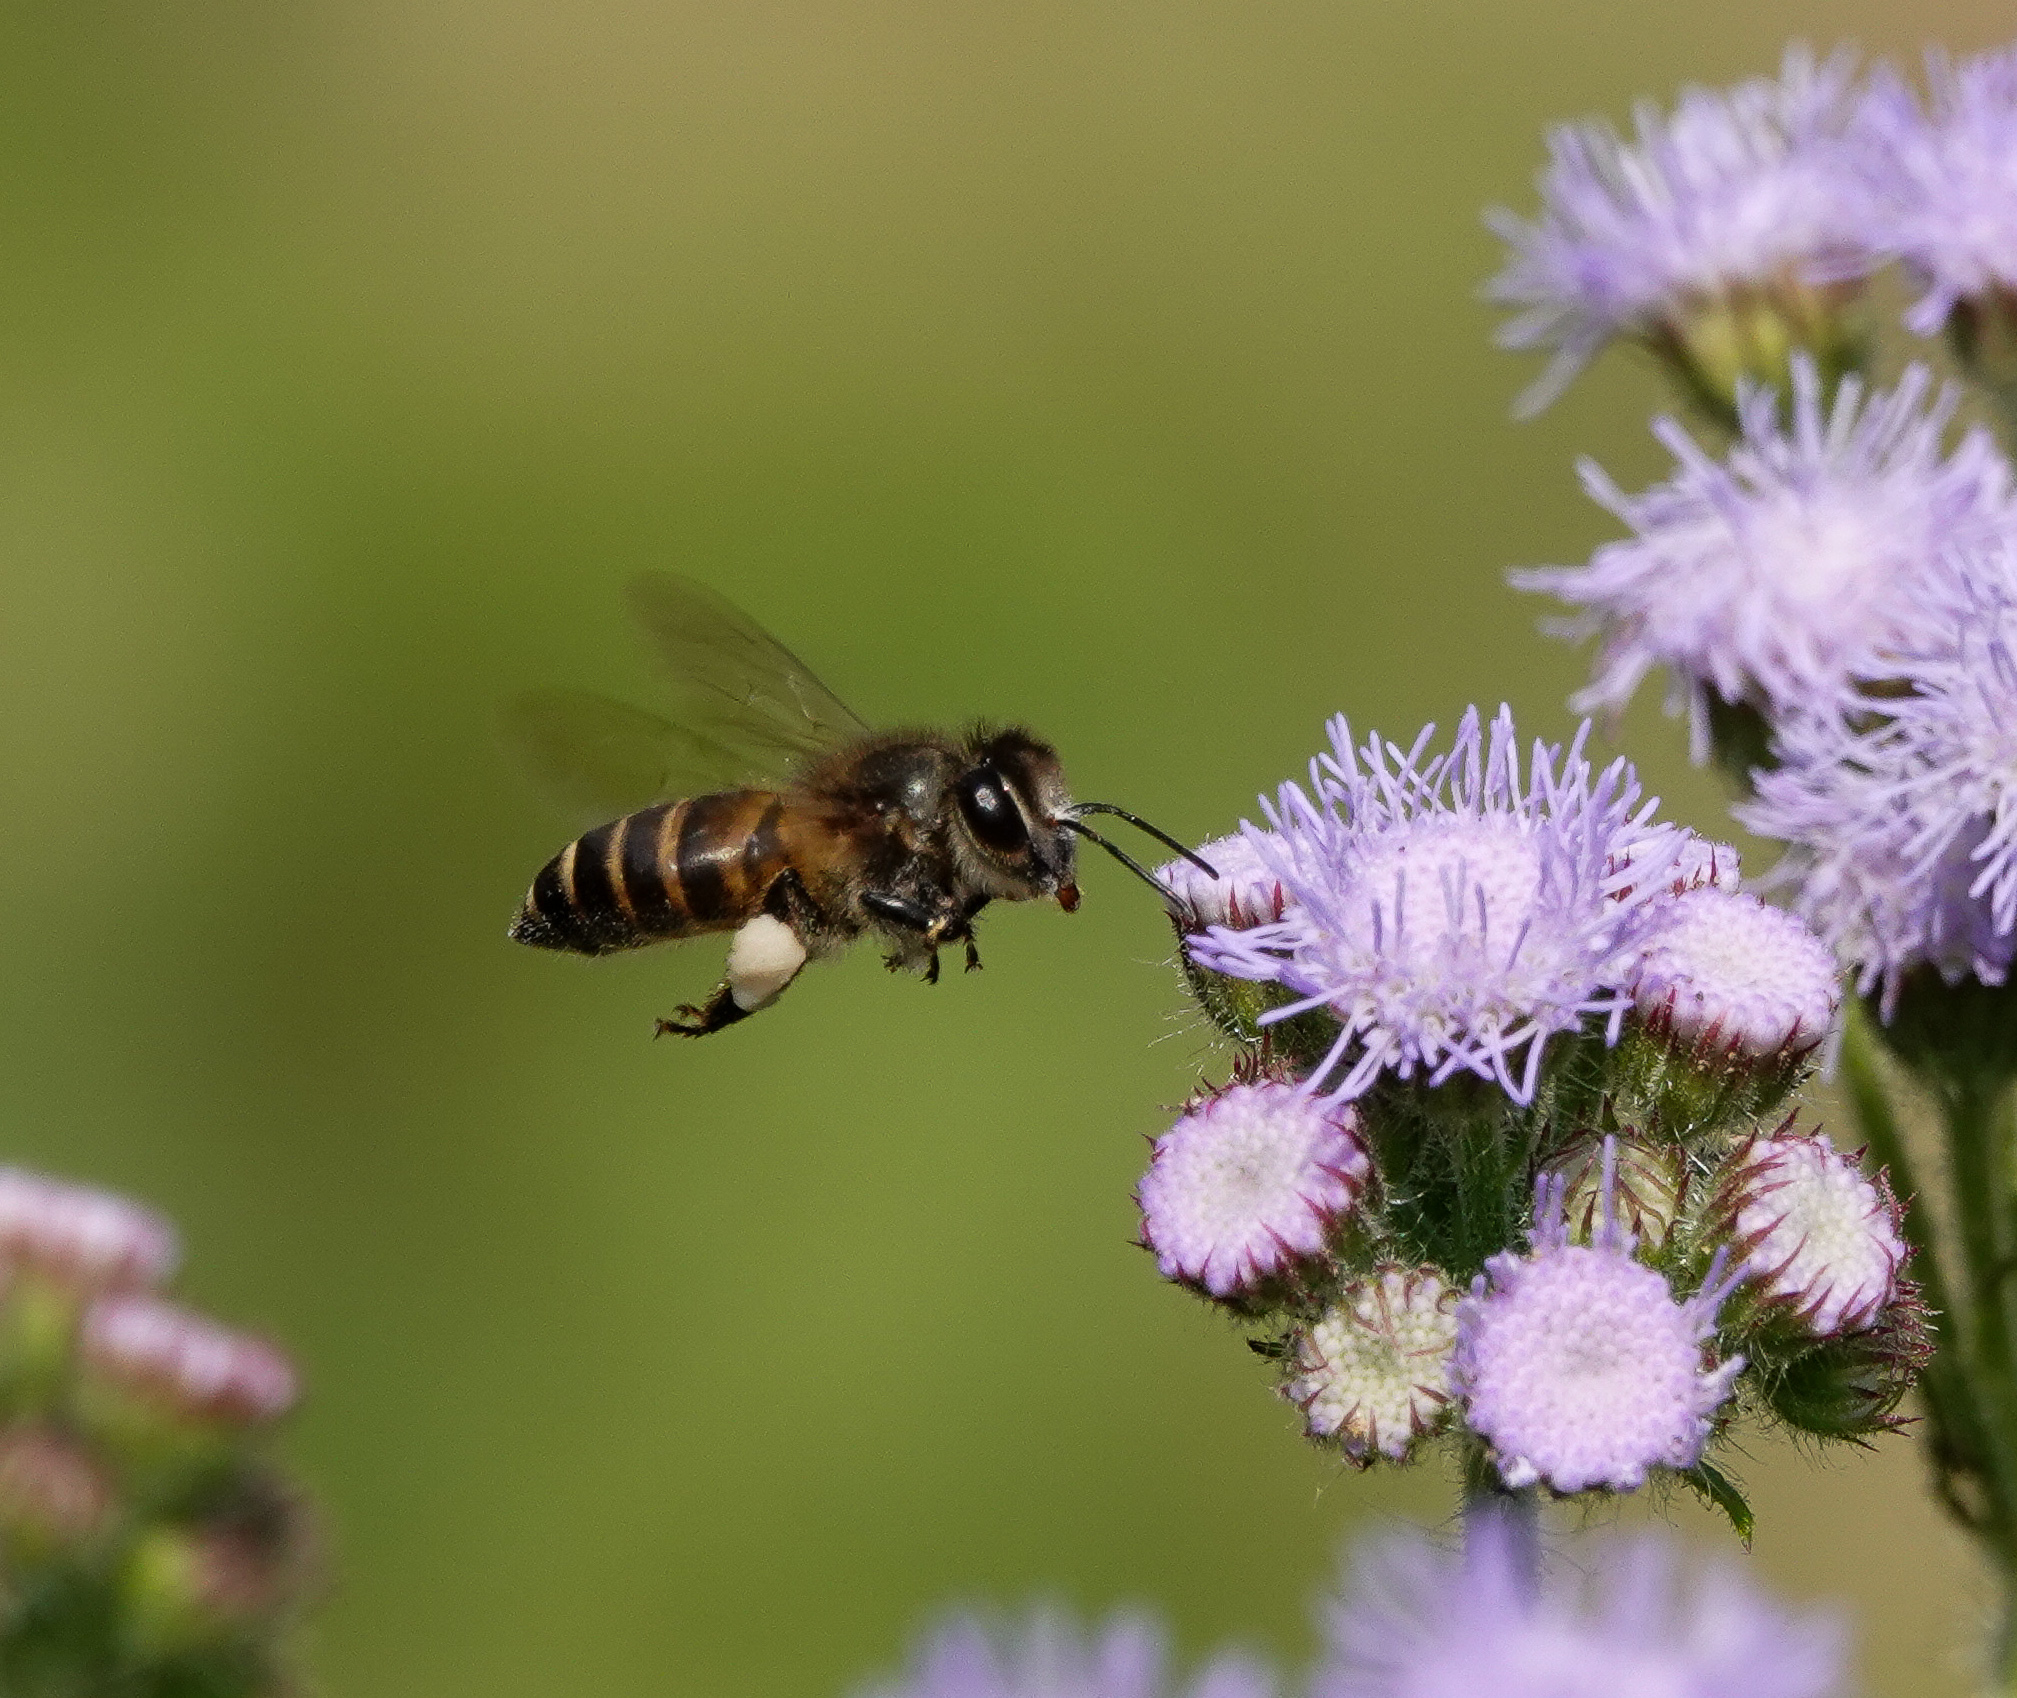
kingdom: Animalia
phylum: Arthropoda
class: Insecta
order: Hymenoptera
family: Apidae
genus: Apis
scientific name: Apis cerana
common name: Honey bee
